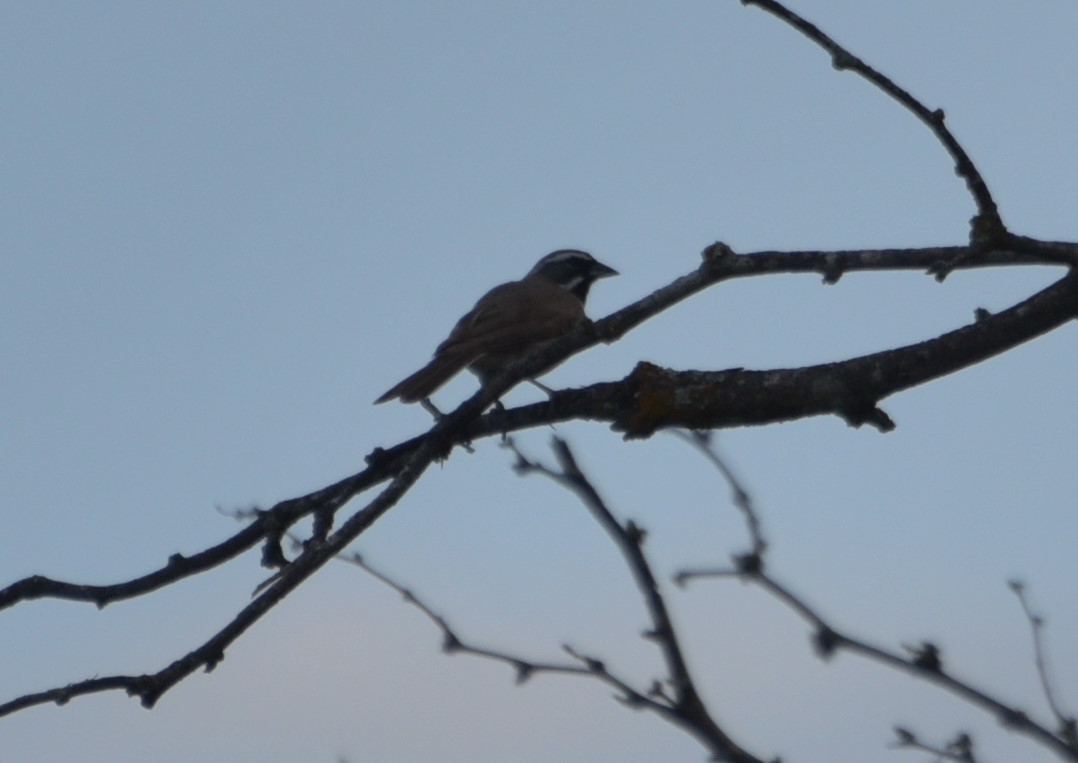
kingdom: Animalia
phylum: Chordata
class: Aves
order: Passeriformes
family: Passerellidae
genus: Amphispiza
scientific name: Amphispiza bilineata
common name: Black-throated sparrow
